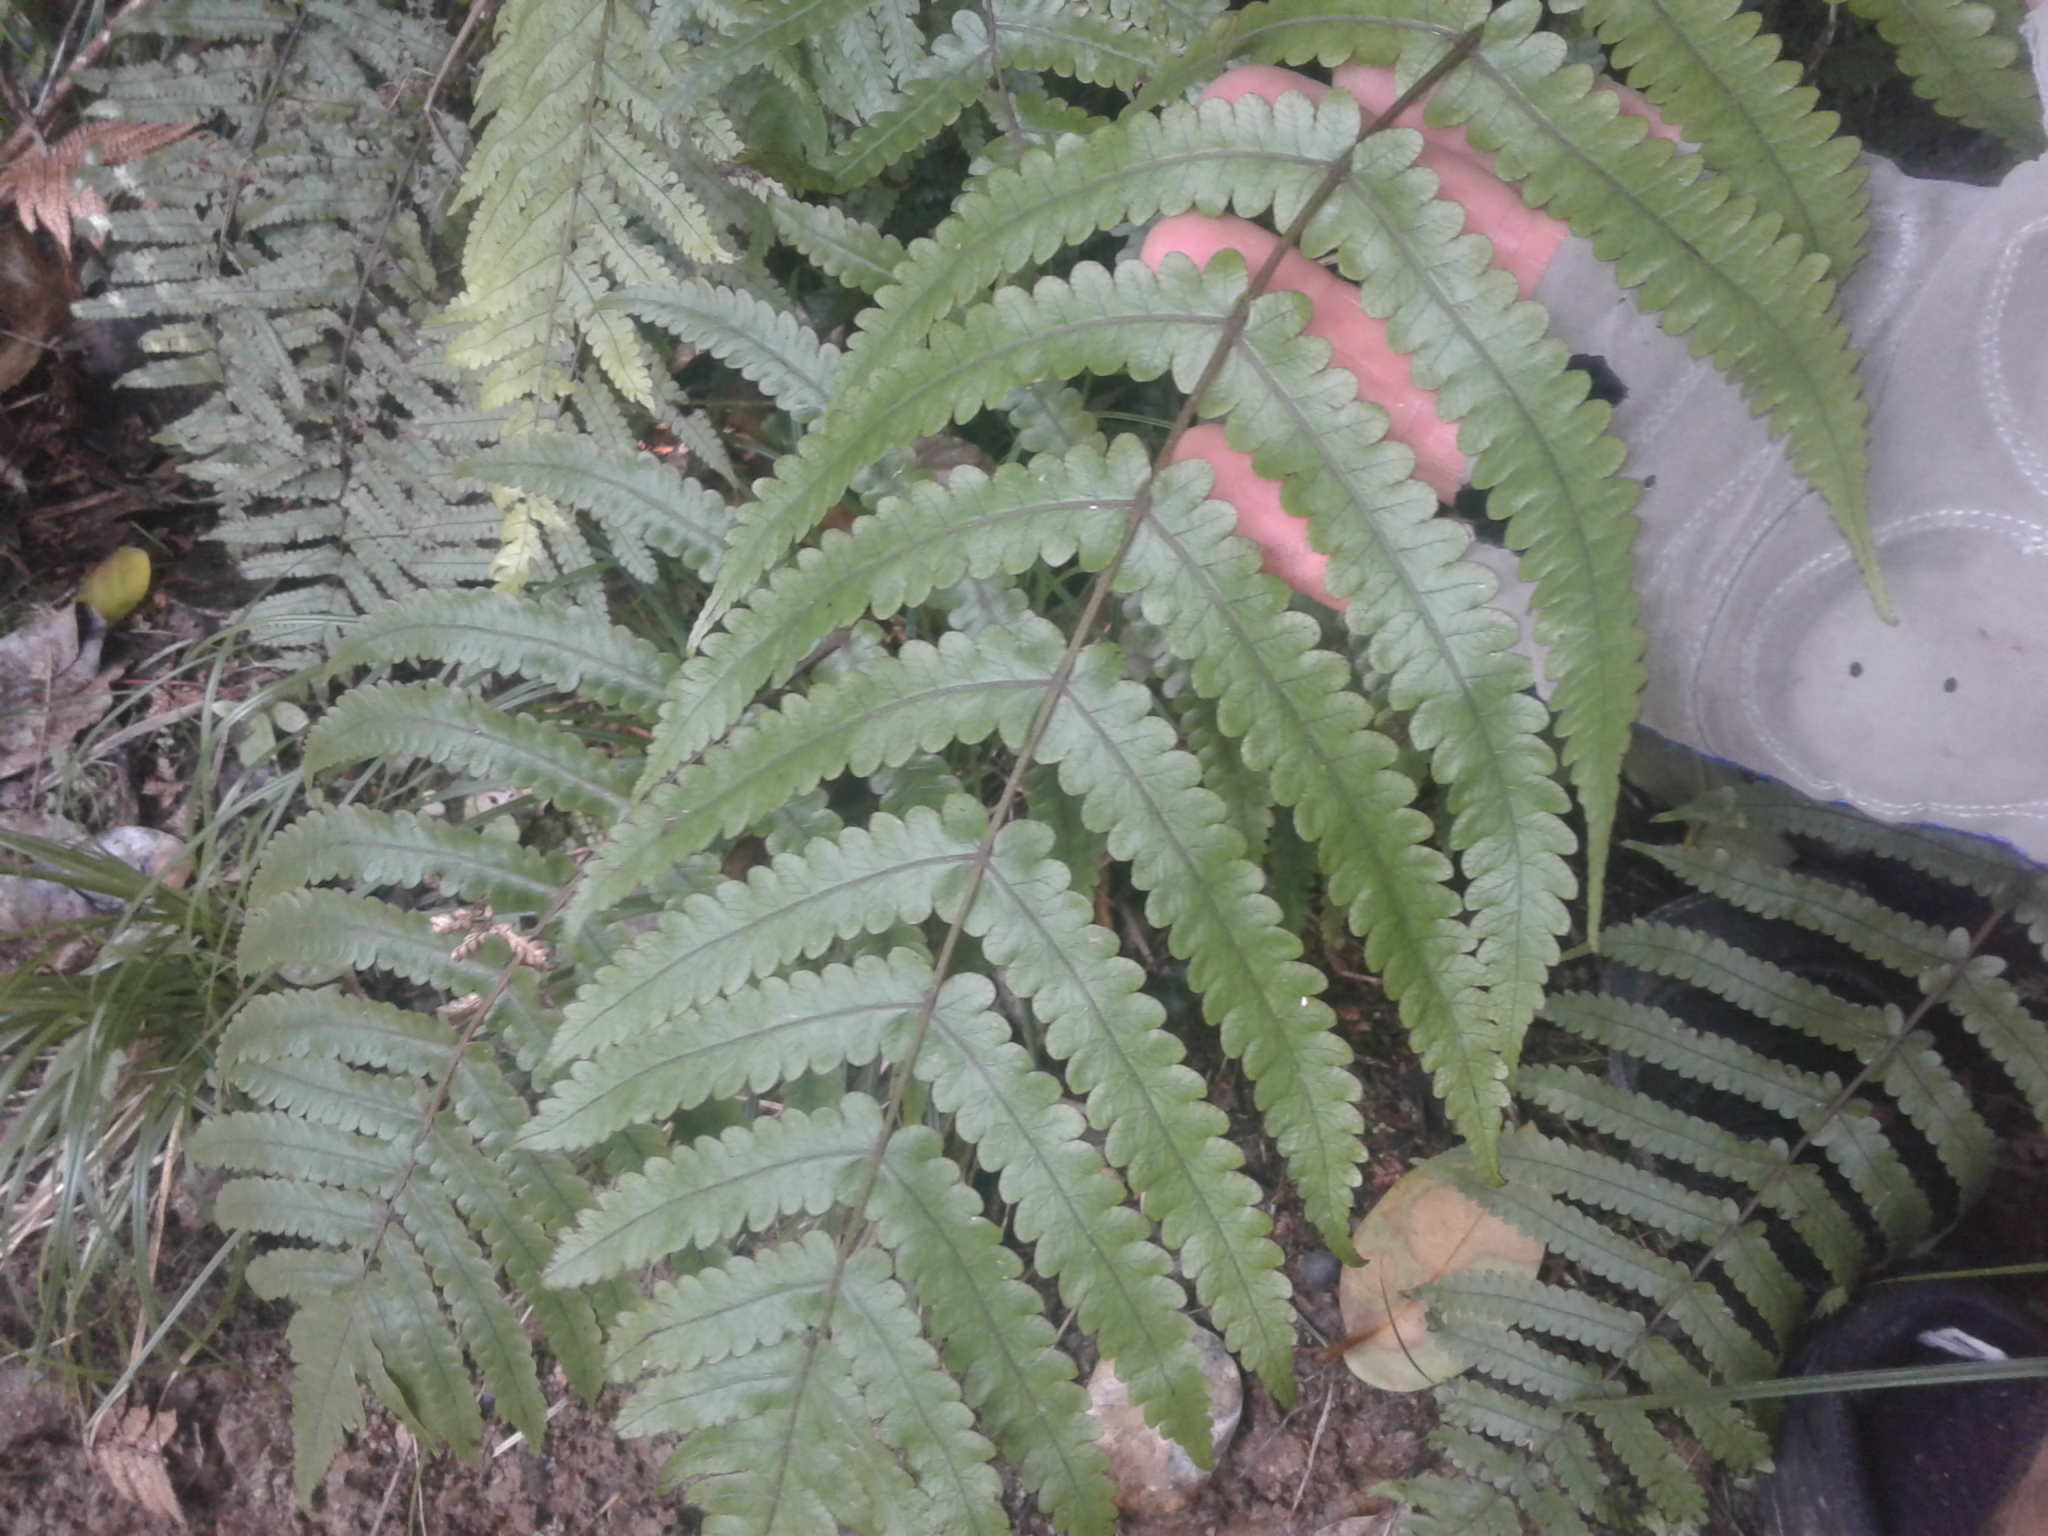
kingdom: Plantae
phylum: Tracheophyta
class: Polypodiopsida
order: Polypodiales
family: Thelypteridaceae
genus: Pakau
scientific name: Pakau pennigera
